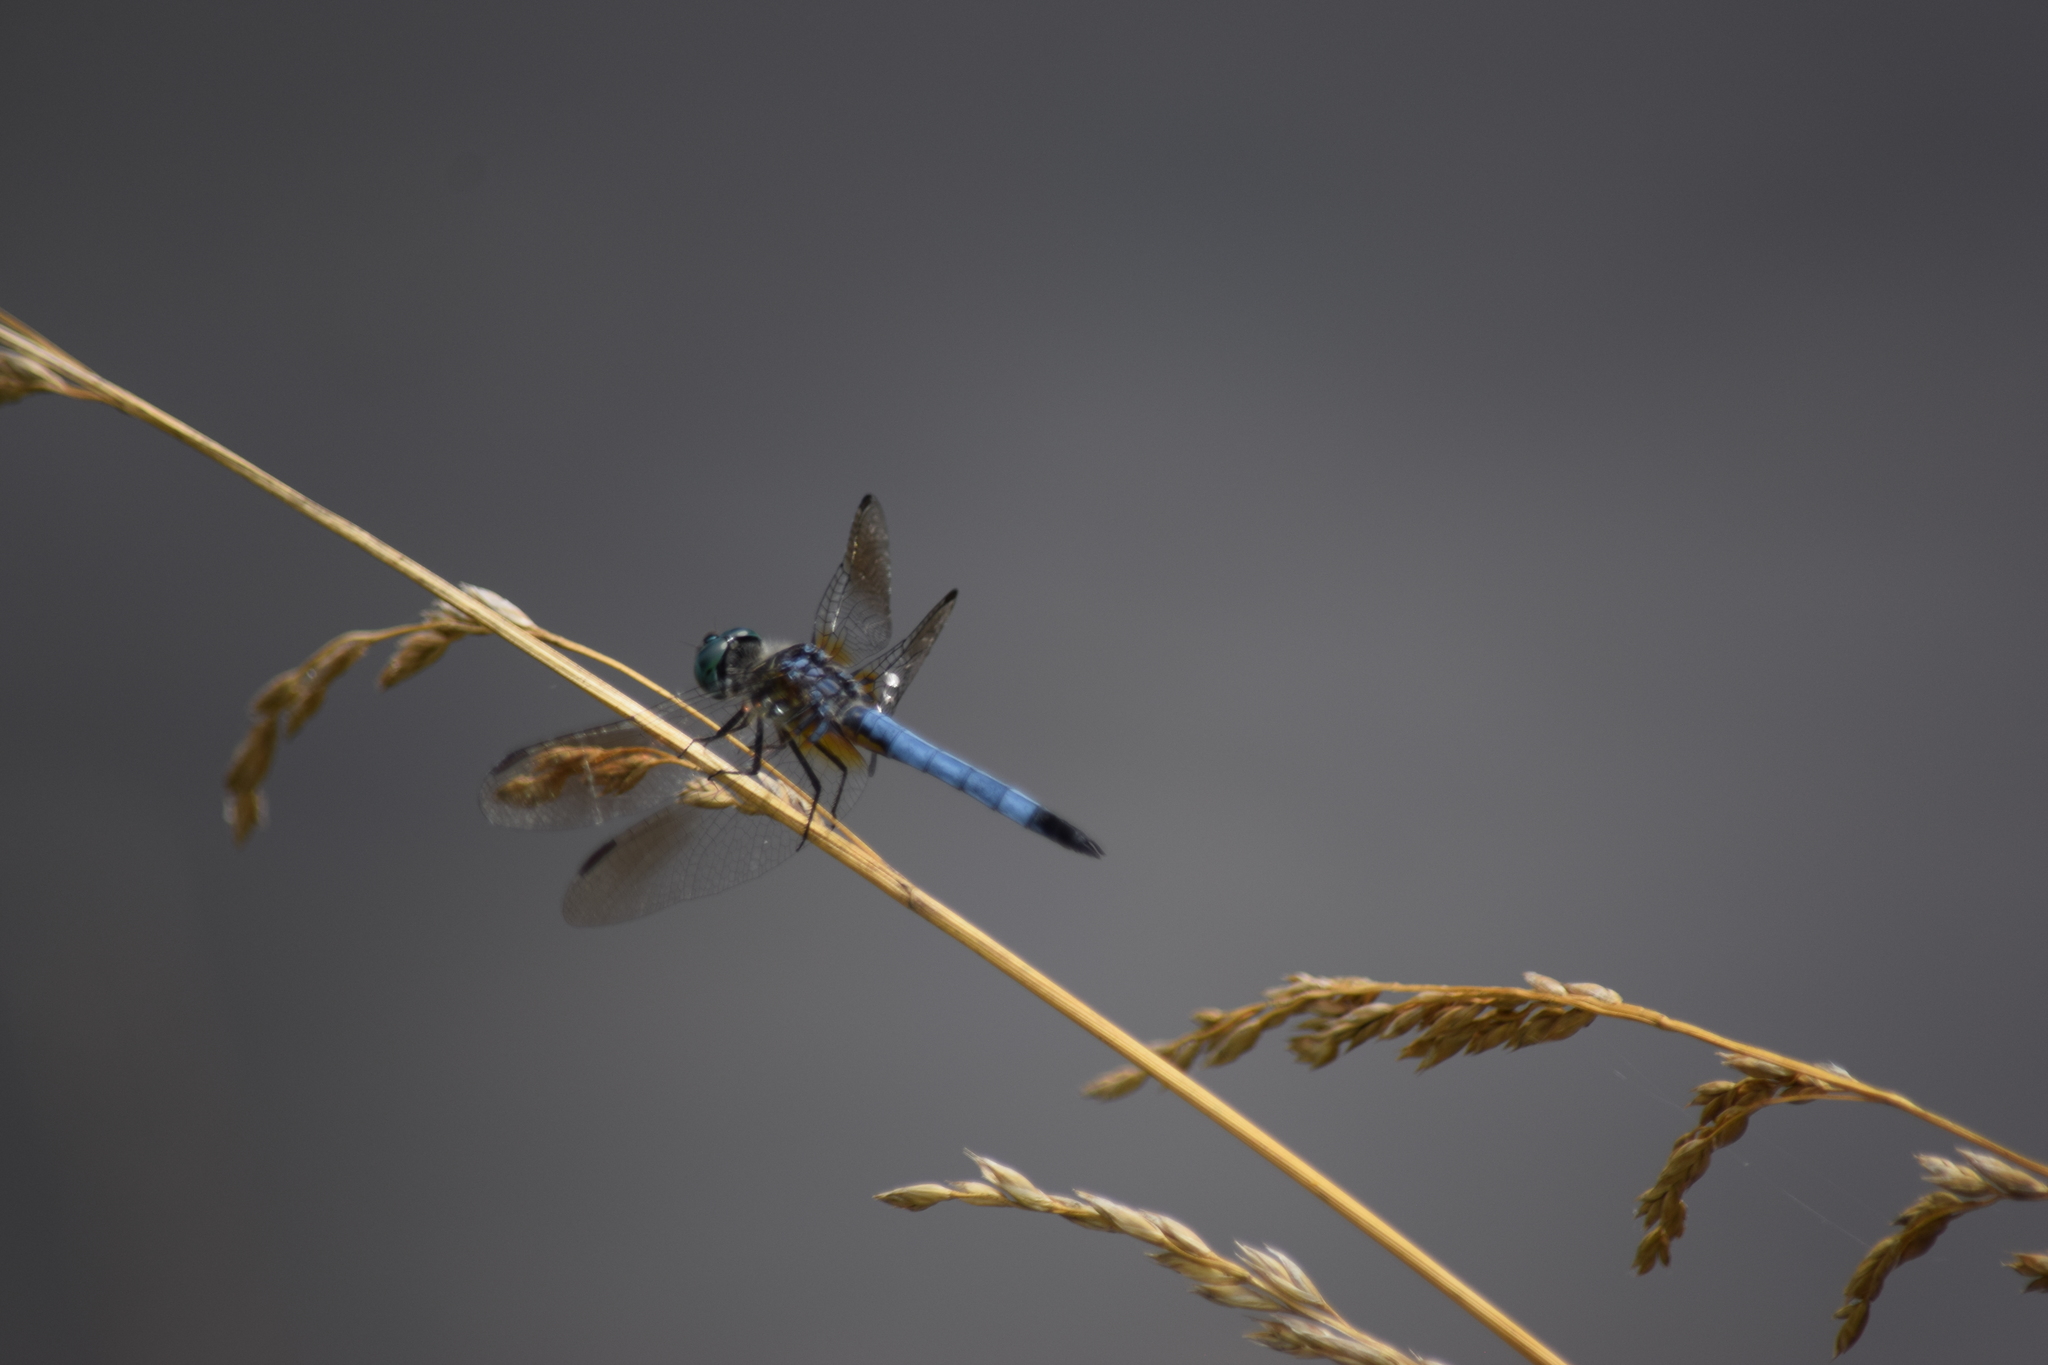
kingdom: Animalia
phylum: Arthropoda
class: Insecta
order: Odonata
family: Libellulidae
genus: Pachydiplax
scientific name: Pachydiplax longipennis
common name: Blue dasher
